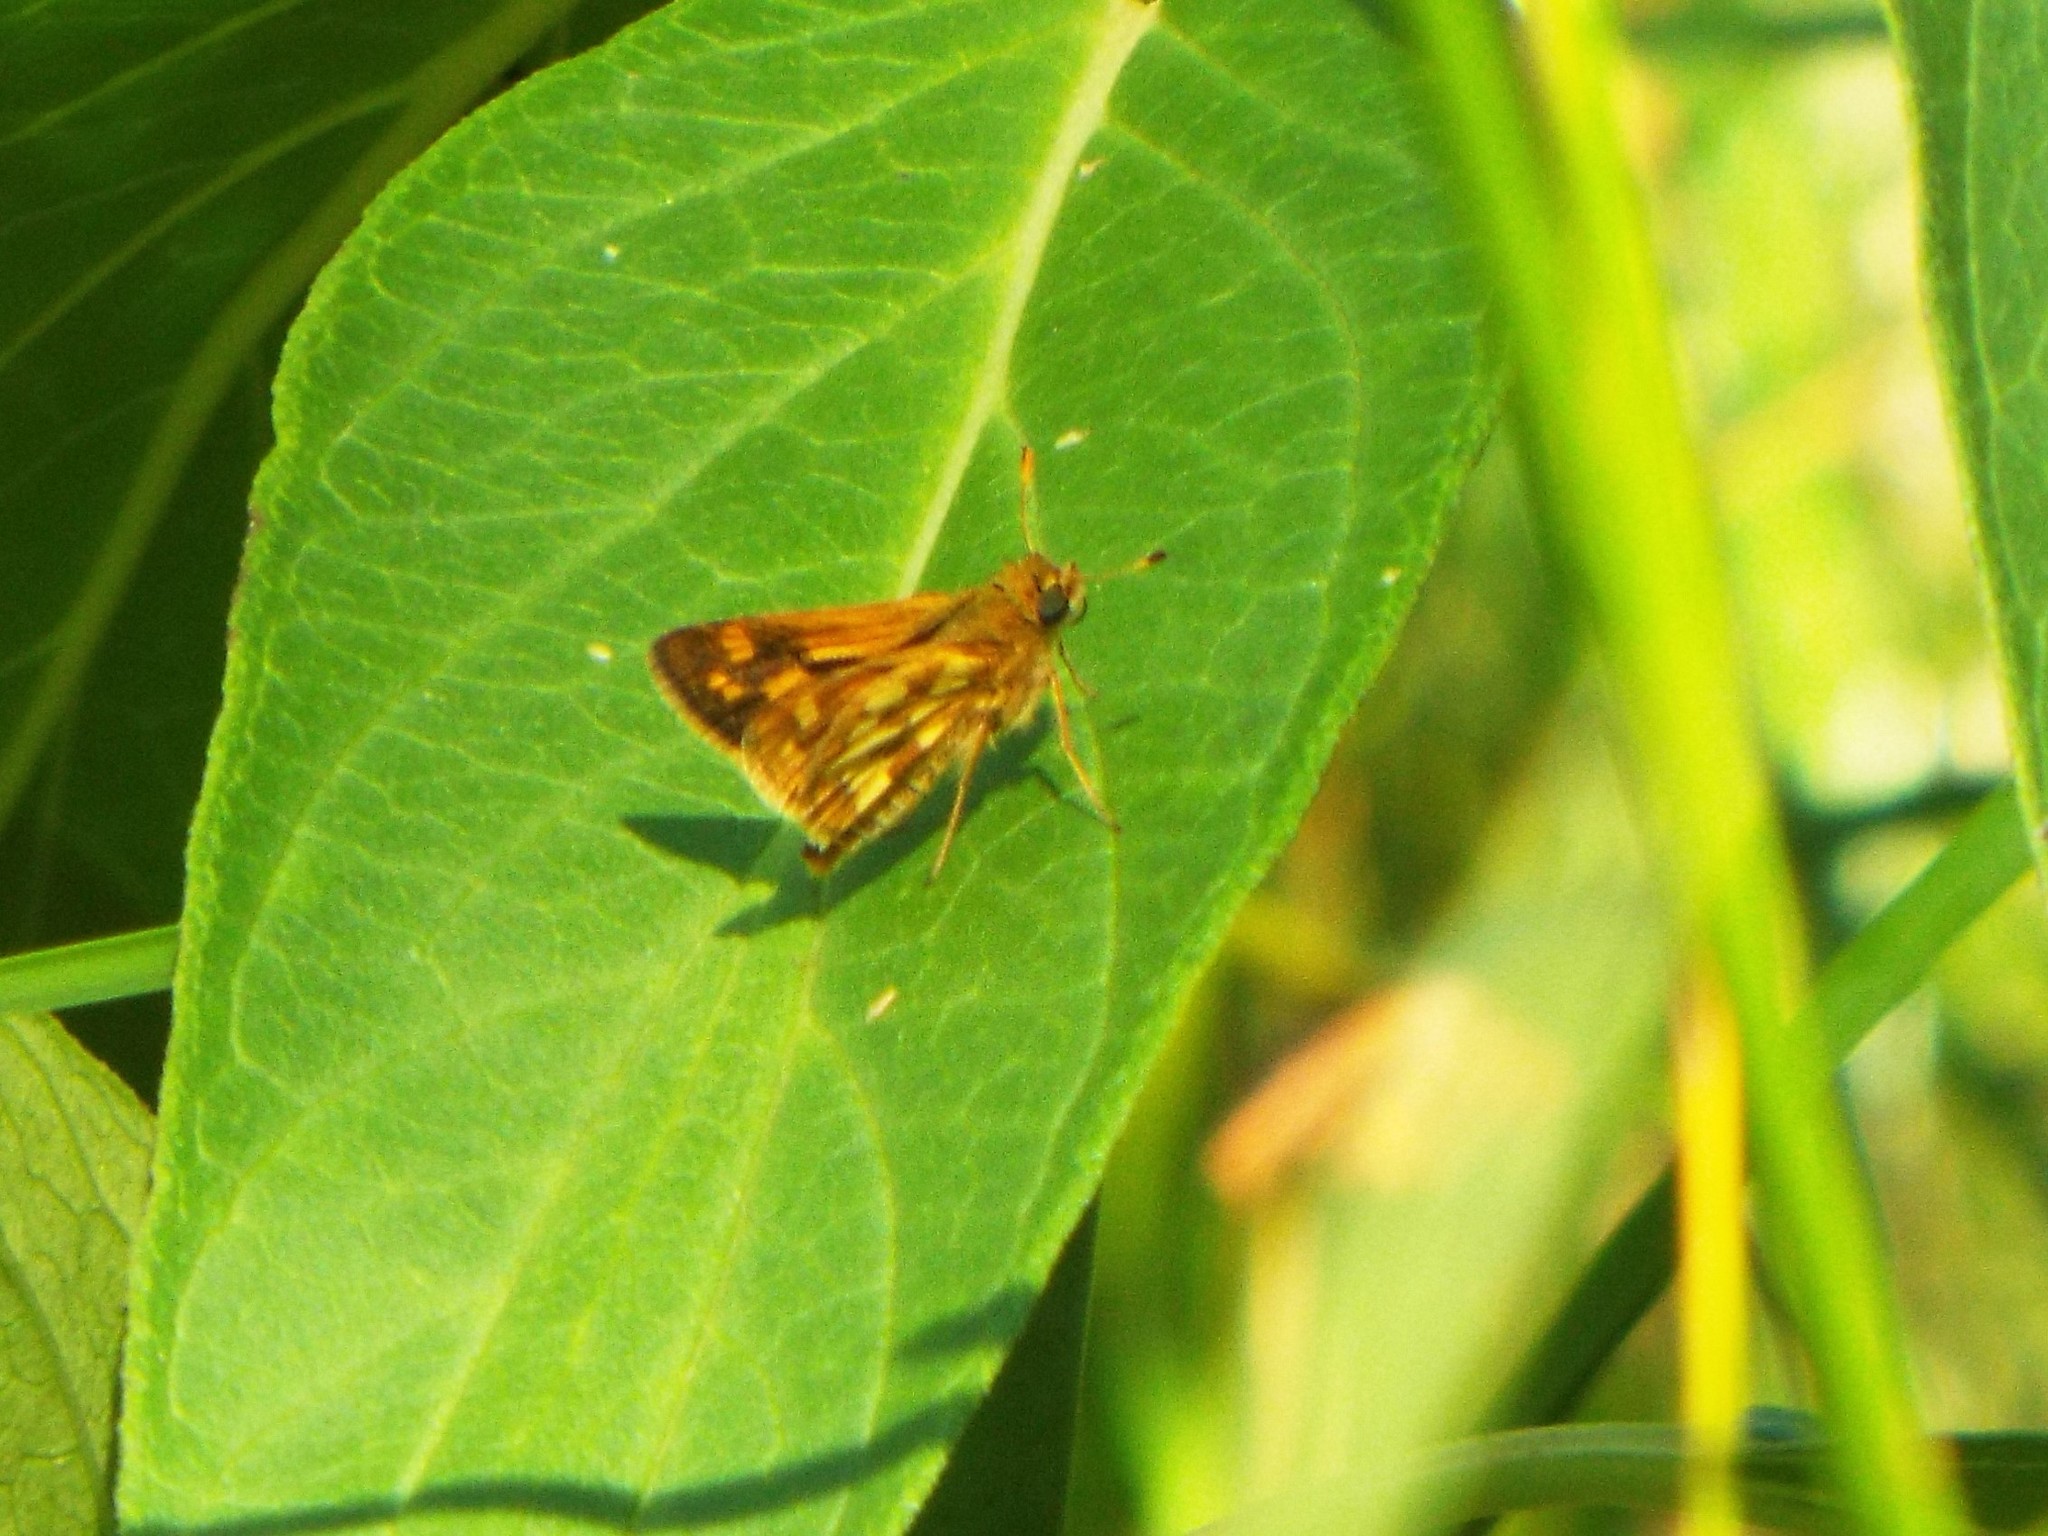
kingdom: Animalia
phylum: Arthropoda
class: Insecta
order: Lepidoptera
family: Hesperiidae
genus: Polites
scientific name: Polites coras
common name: Peck's skipper
